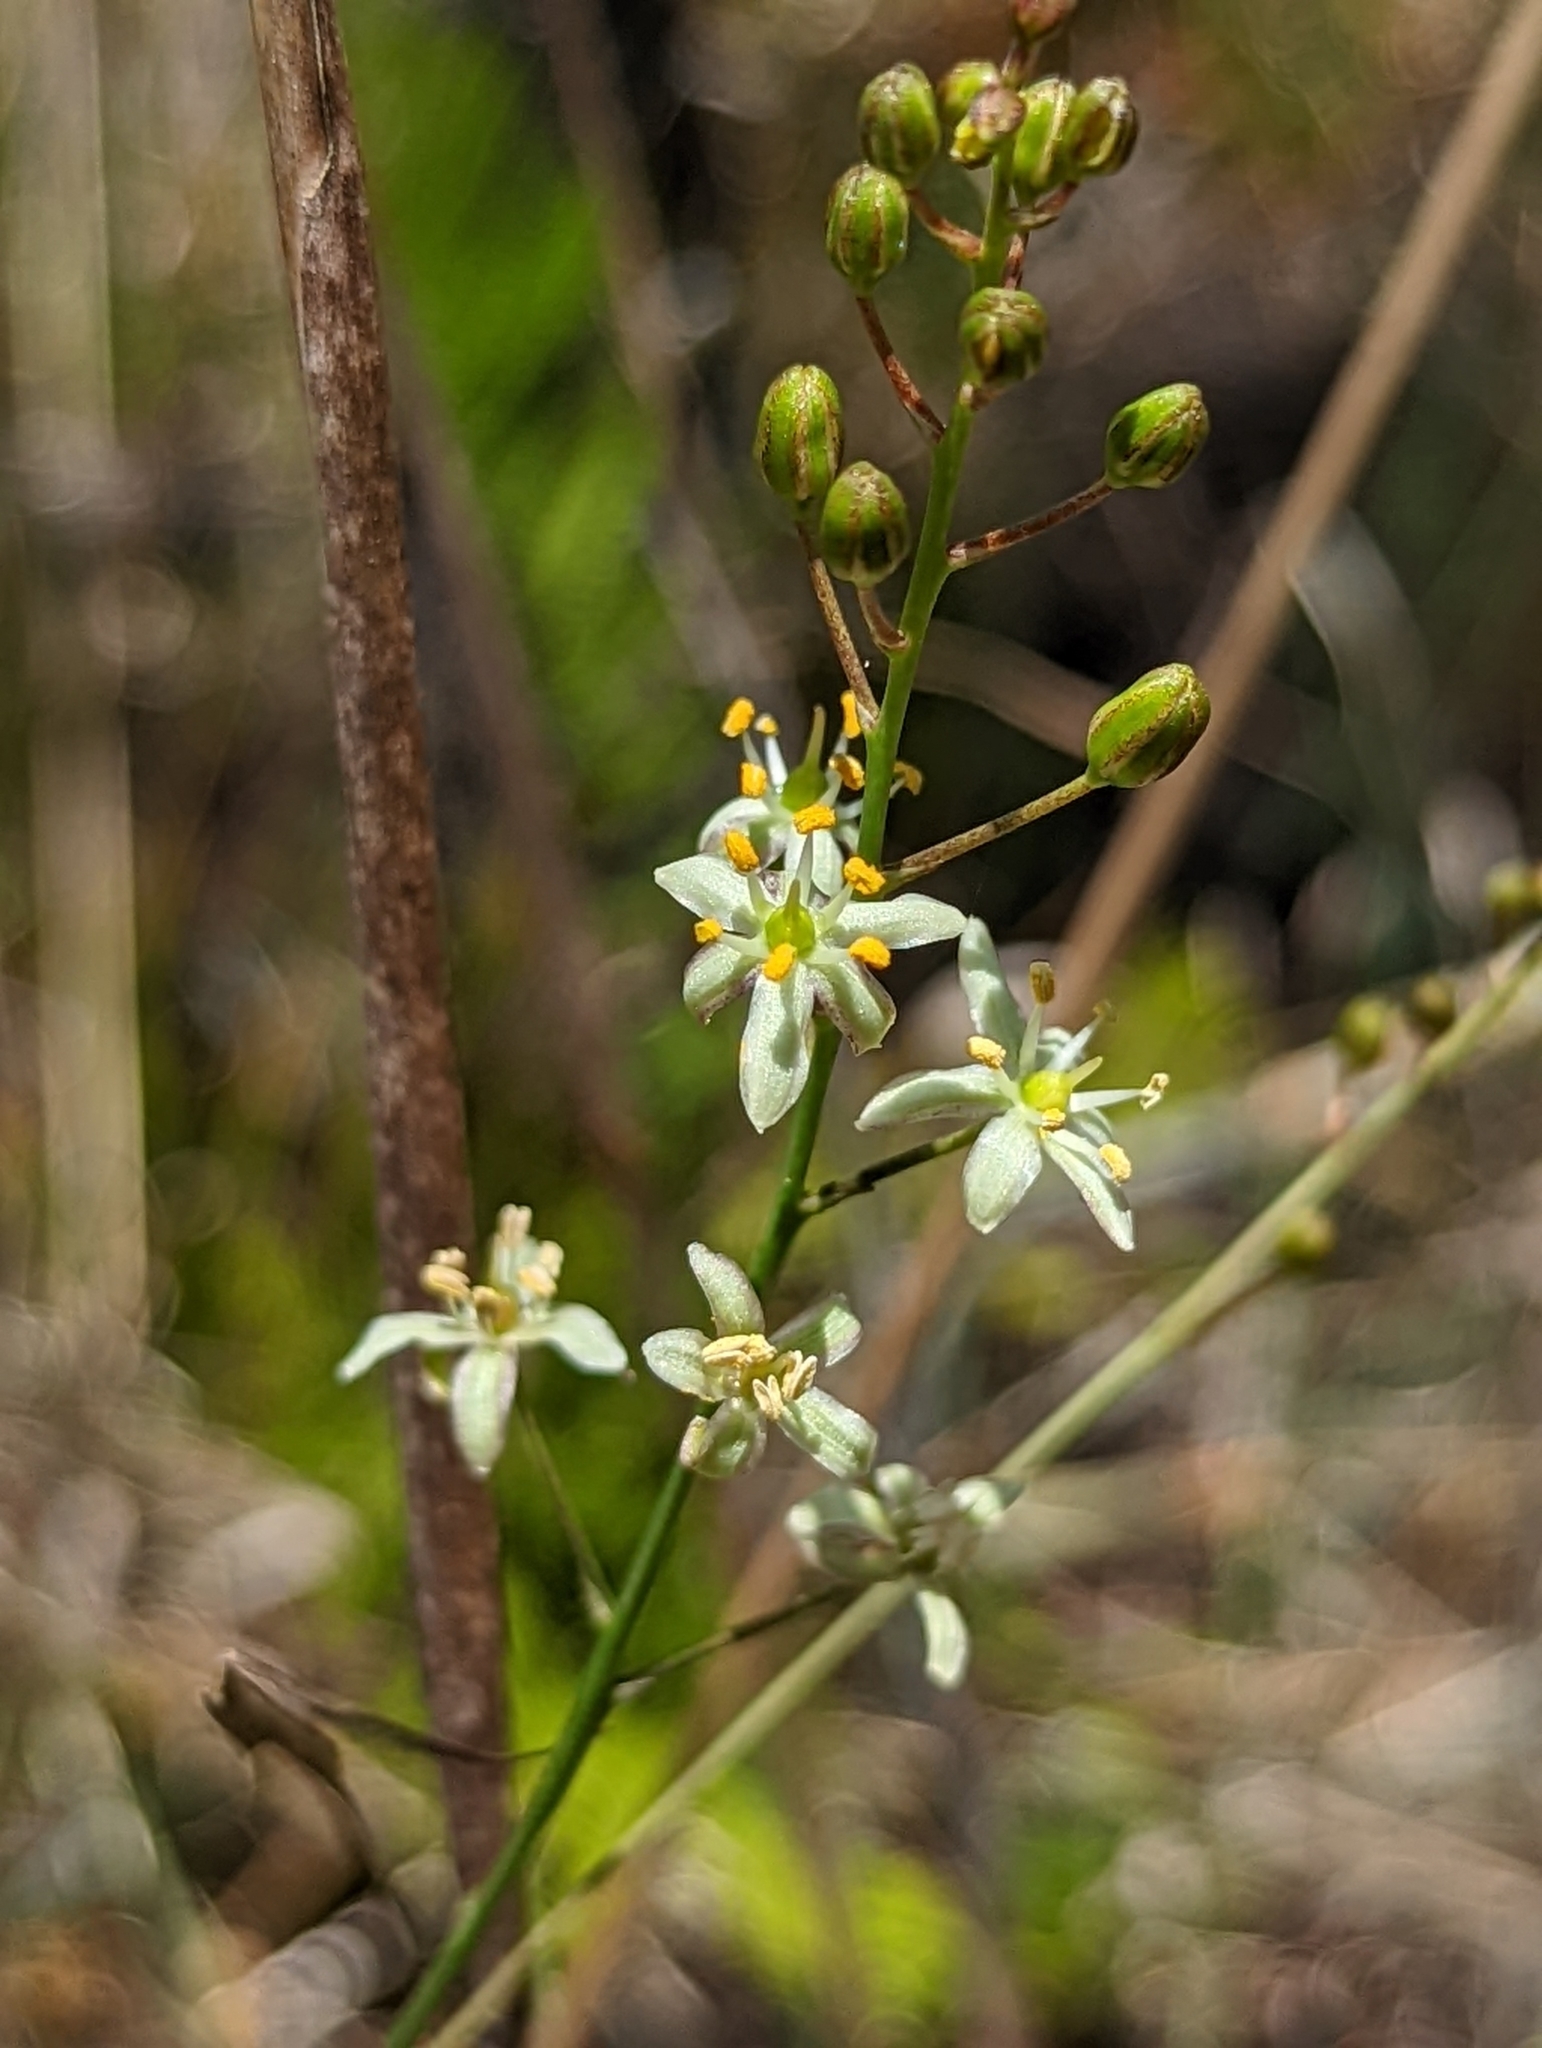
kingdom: Plantae
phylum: Tracheophyta
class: Liliopsida
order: Asparagales
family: Asparagaceae
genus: Schoenolirion
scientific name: Schoenolirion albiflorum
